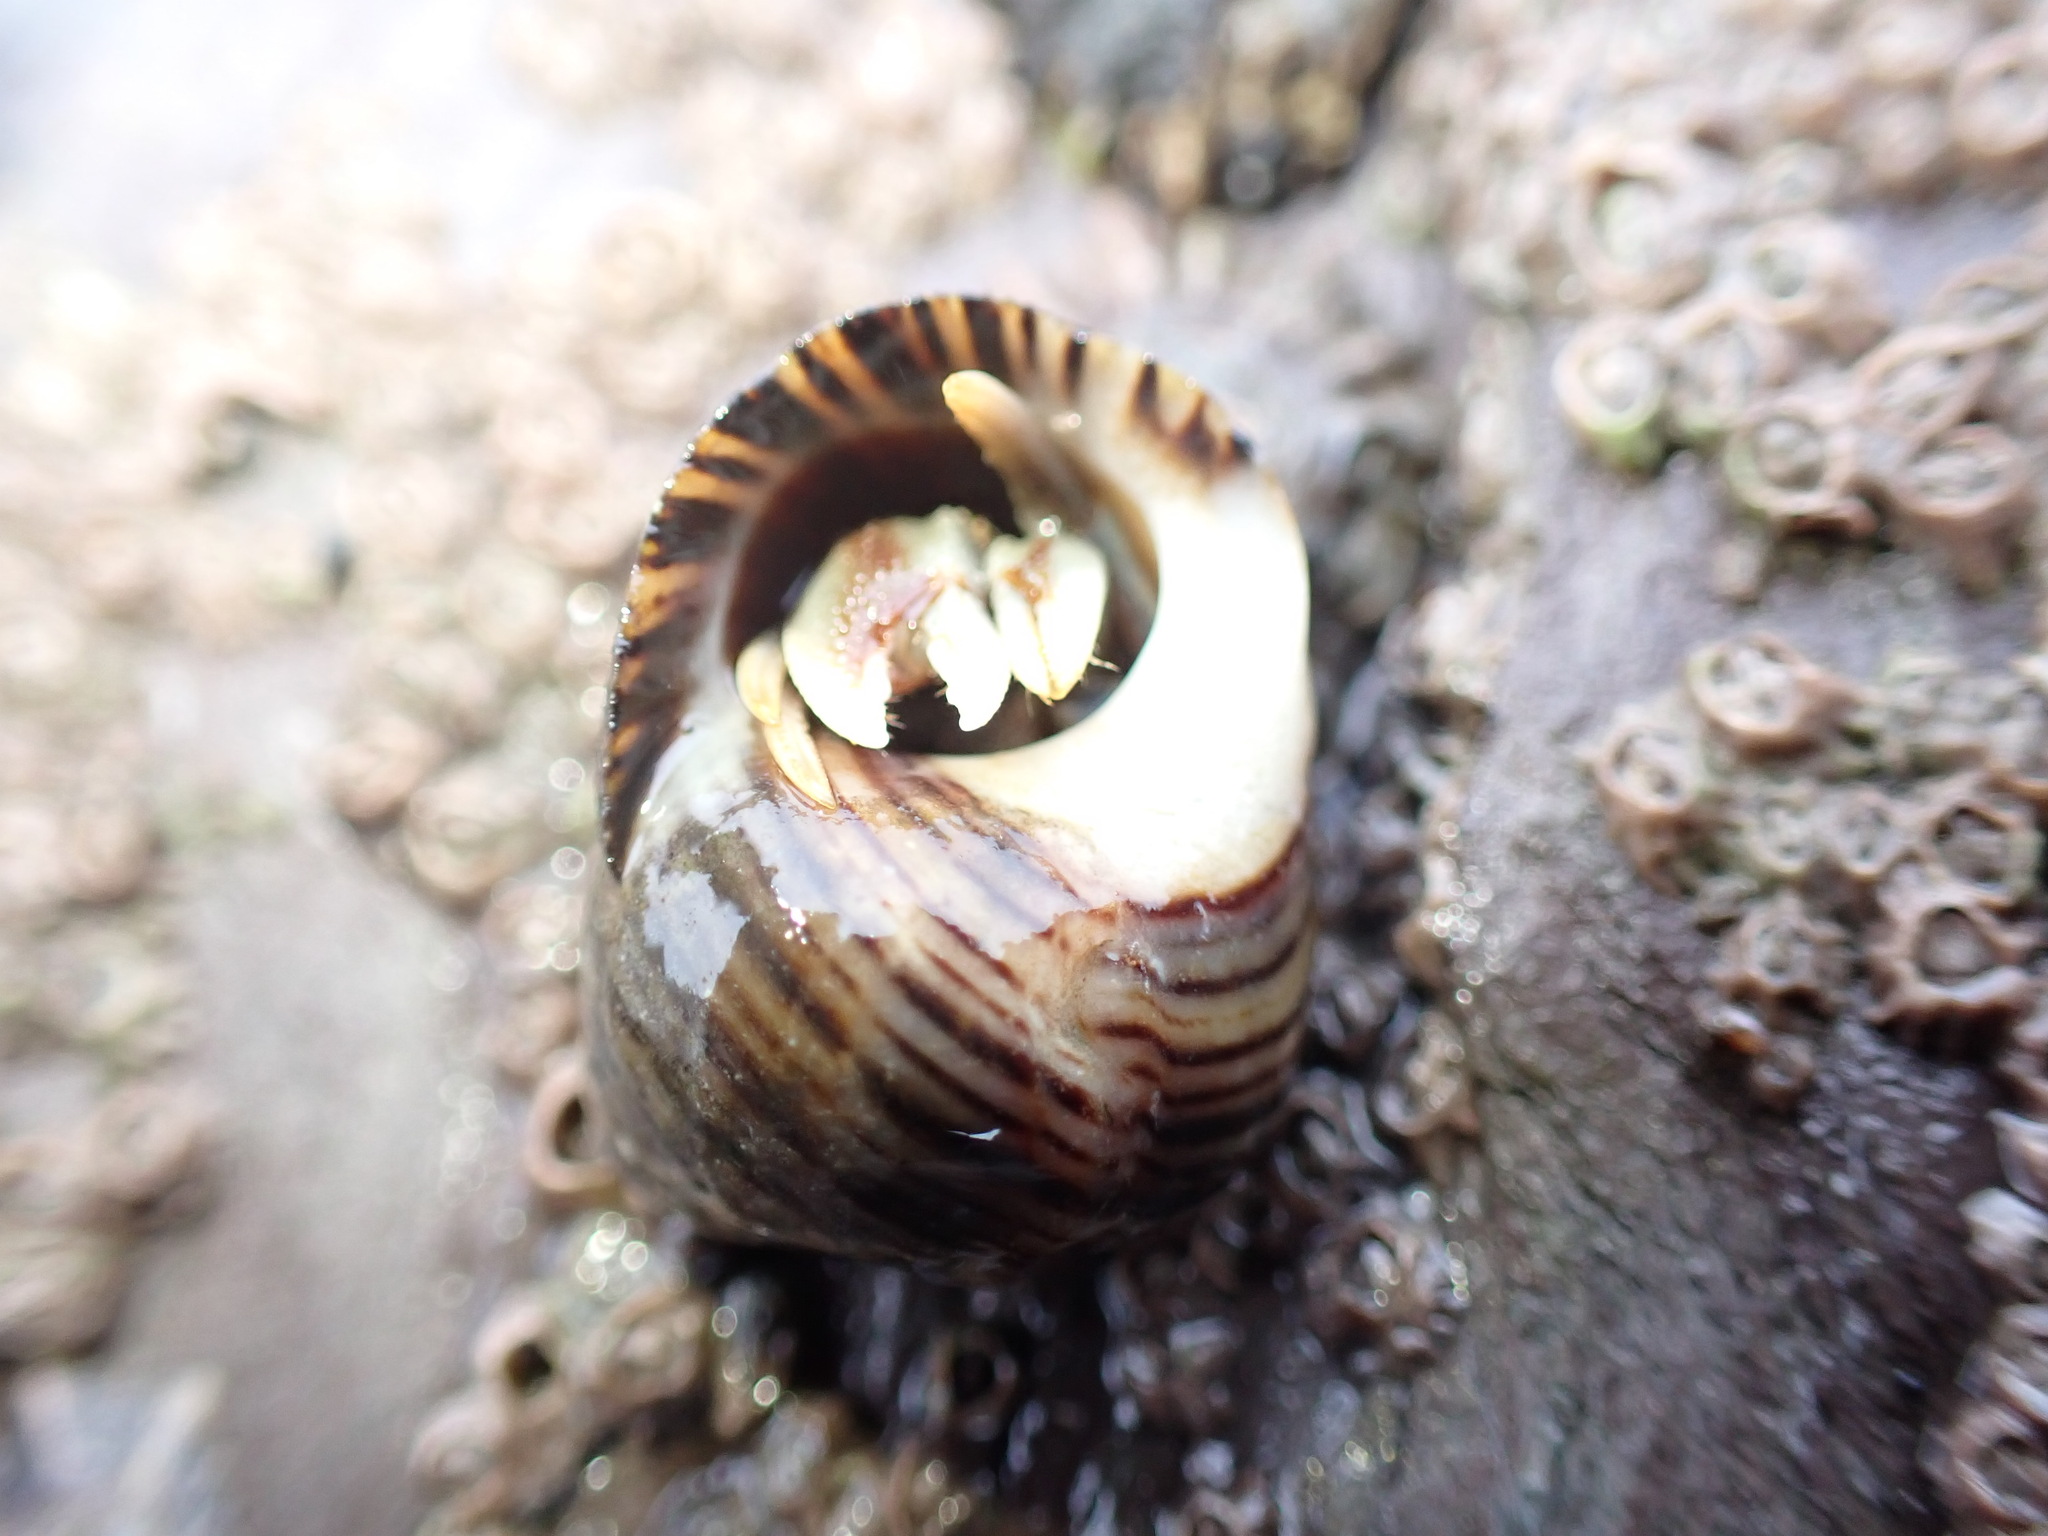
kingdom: Animalia
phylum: Arthropoda
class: Malacostraca
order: Decapoda
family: Paguridae
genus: Pagurus
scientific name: Pagurus bernhardus
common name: Hermit crab
